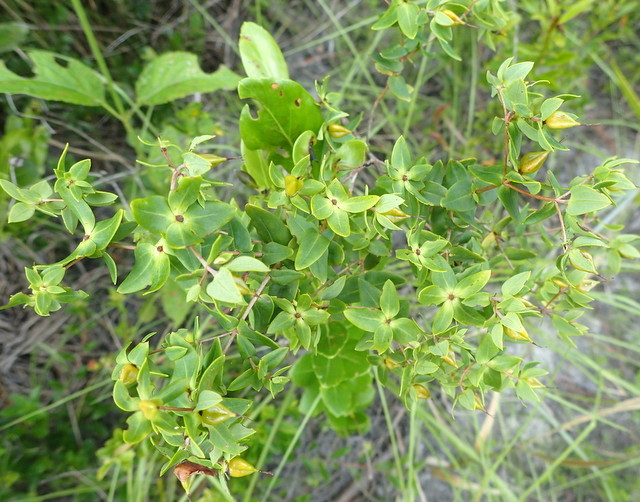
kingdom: Plantae
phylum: Tracheophyta
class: Magnoliopsida
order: Malpighiales
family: Hypericaceae
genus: Hypericum
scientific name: Hypericum myrtifolium
